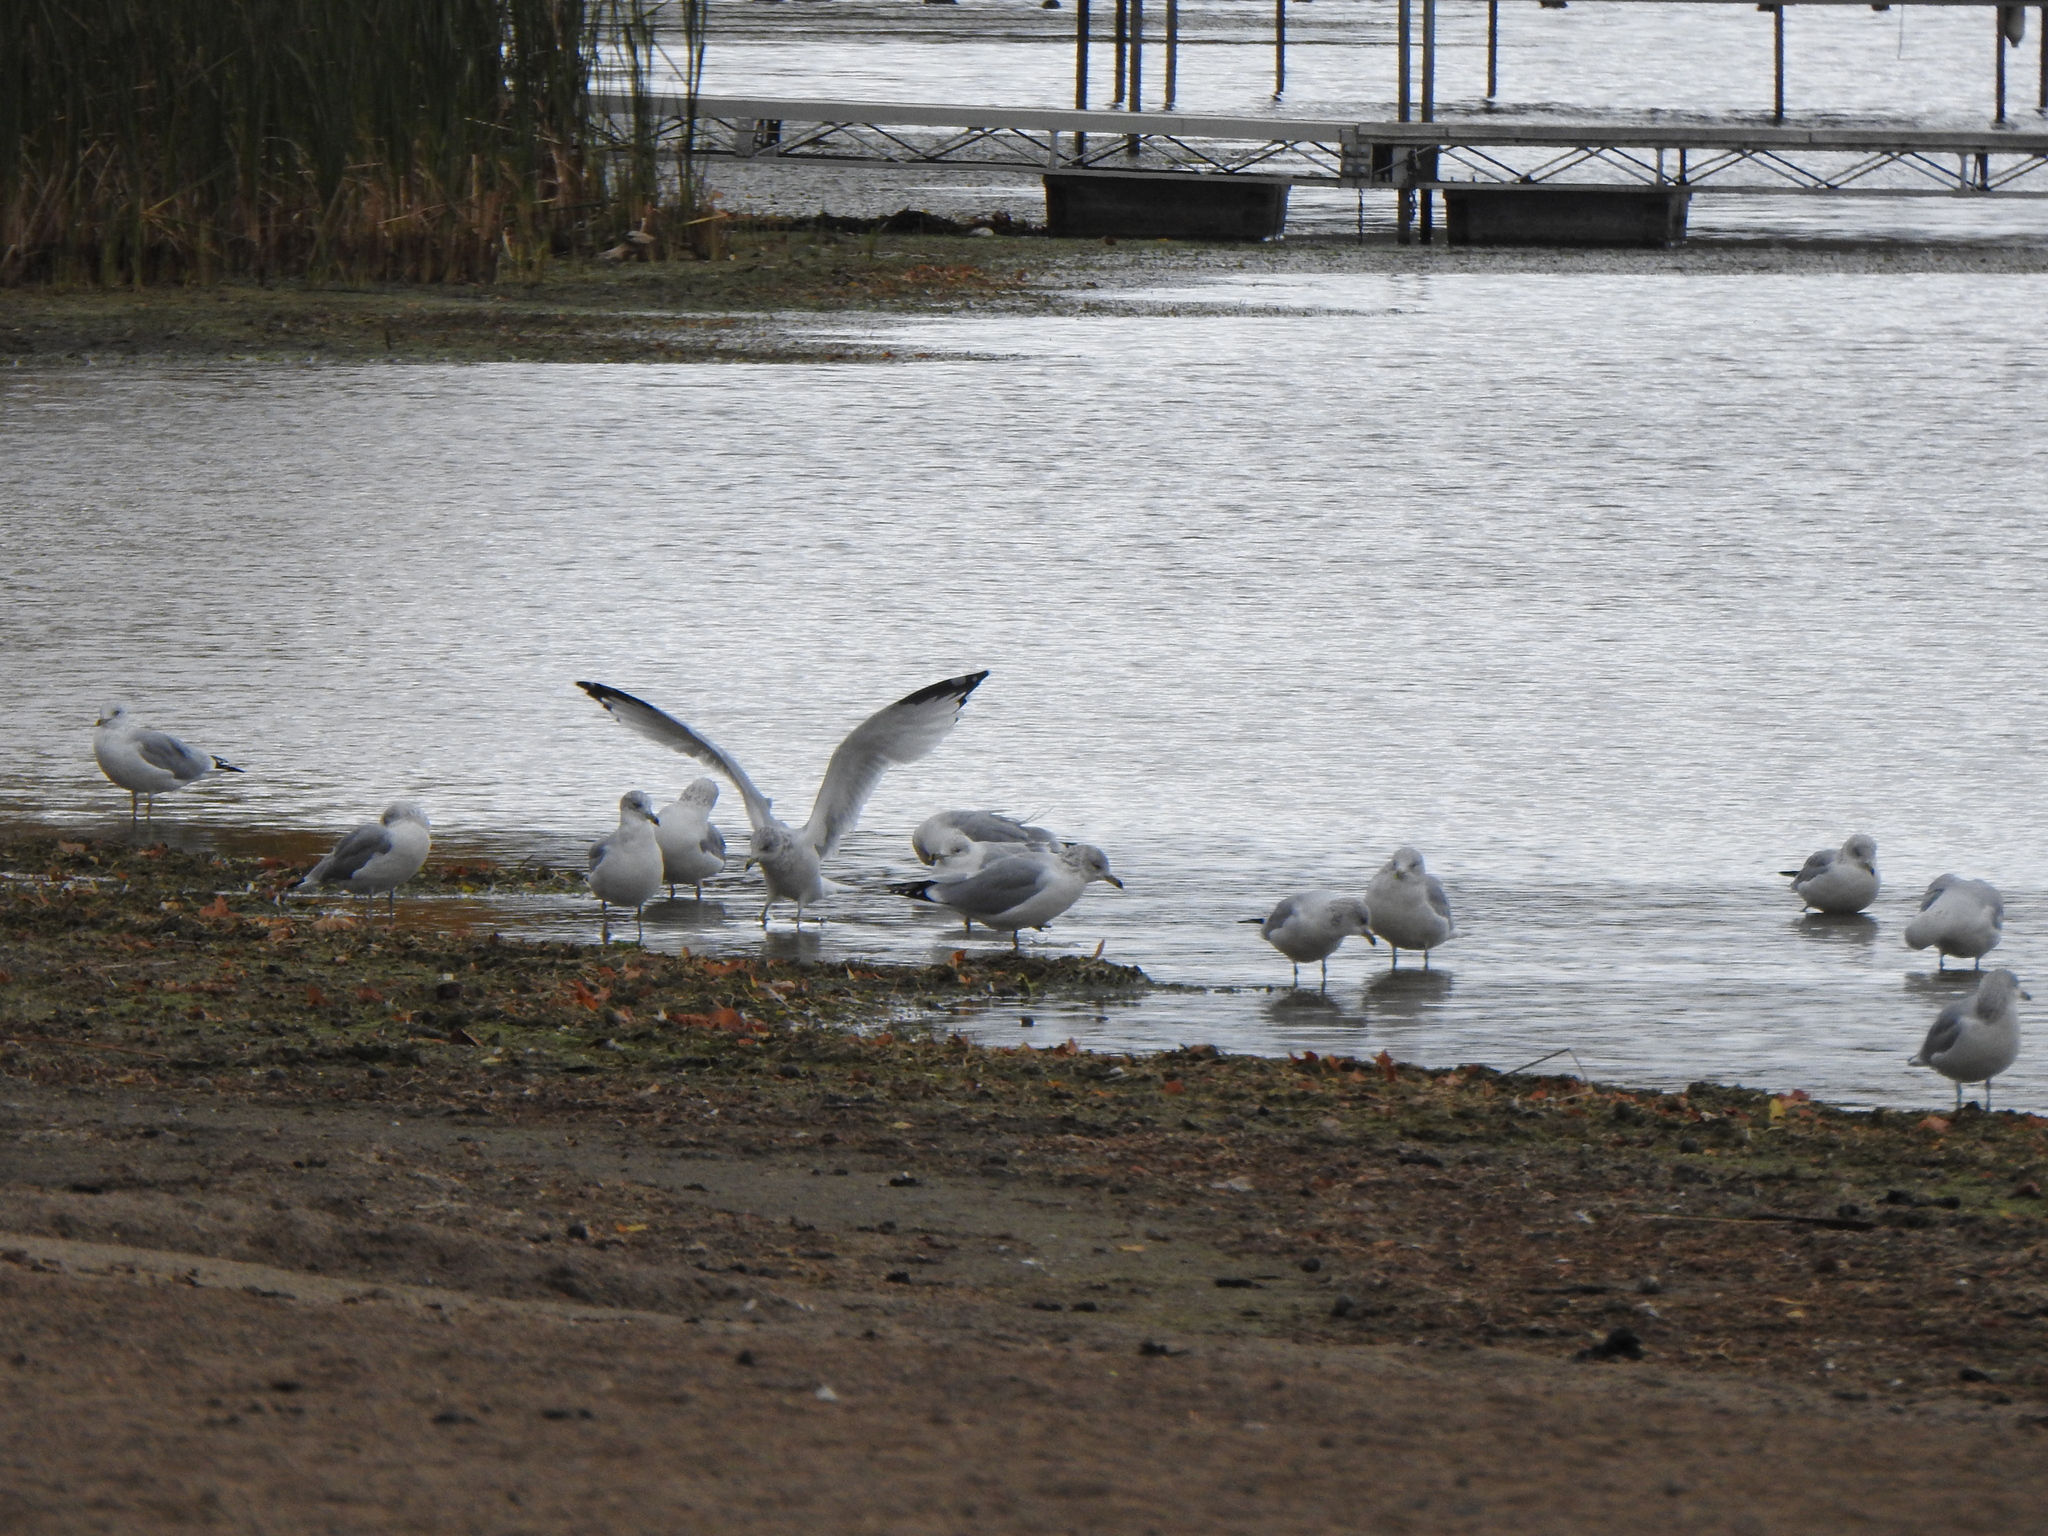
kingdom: Animalia
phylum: Chordata
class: Aves
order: Charadriiformes
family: Laridae
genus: Larus
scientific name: Larus delawarensis
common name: Ring-billed gull
